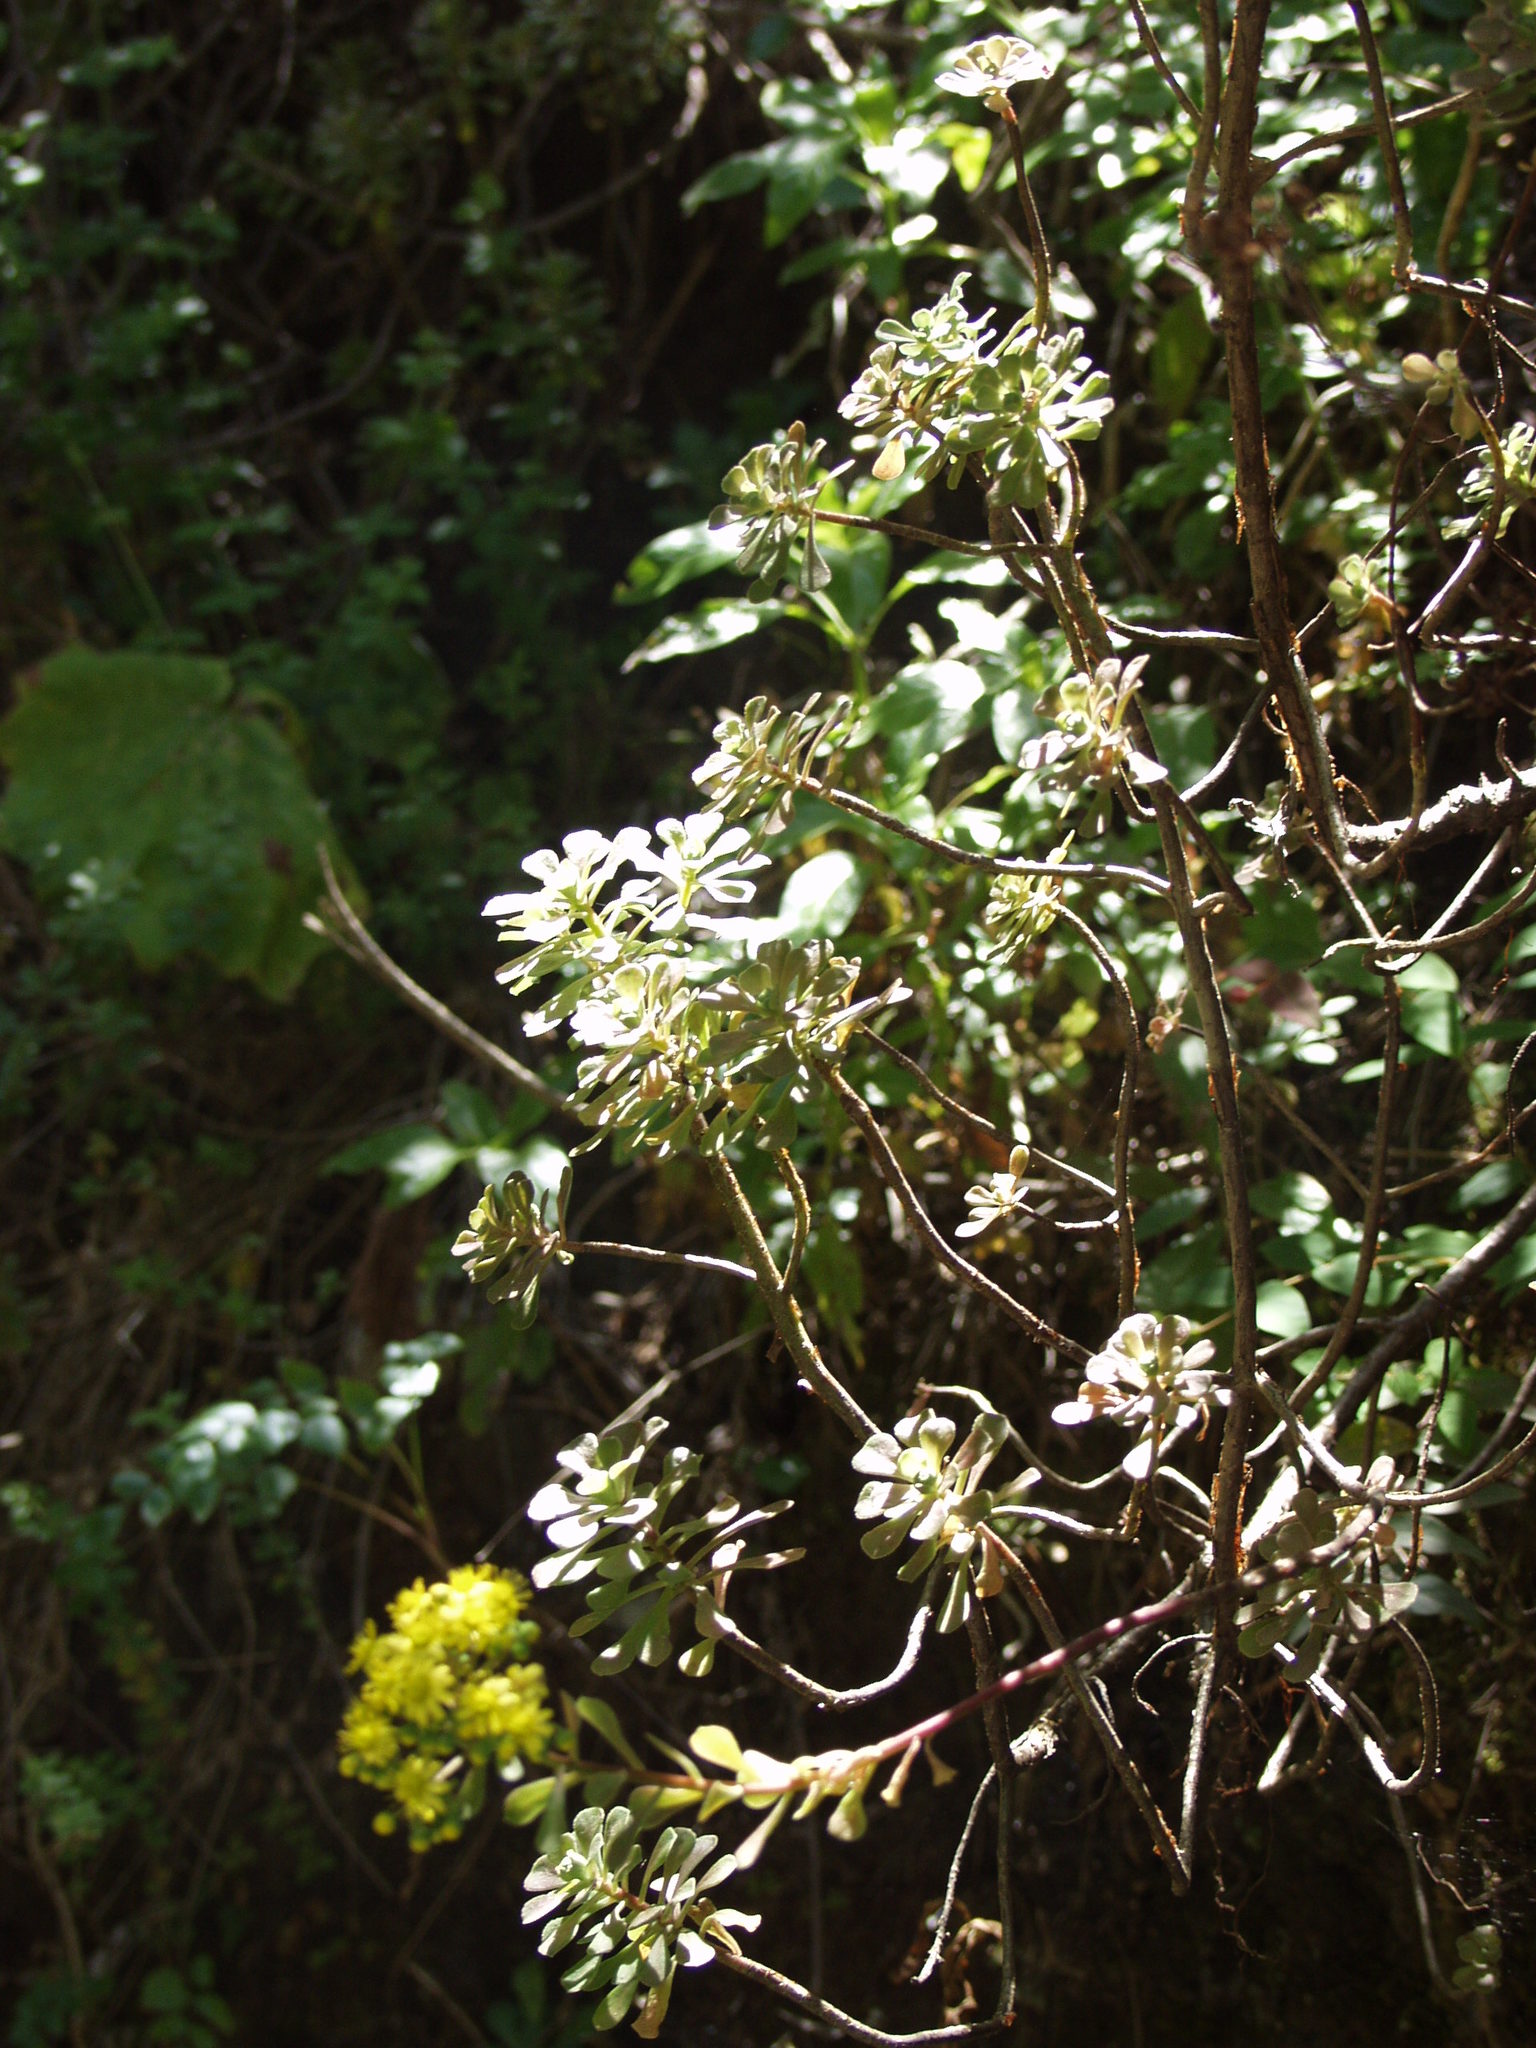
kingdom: Plantae
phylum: Tracheophyta
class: Magnoliopsida
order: Saxifragales
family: Crassulaceae
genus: Aeonium
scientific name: Aeonium spathulatum
